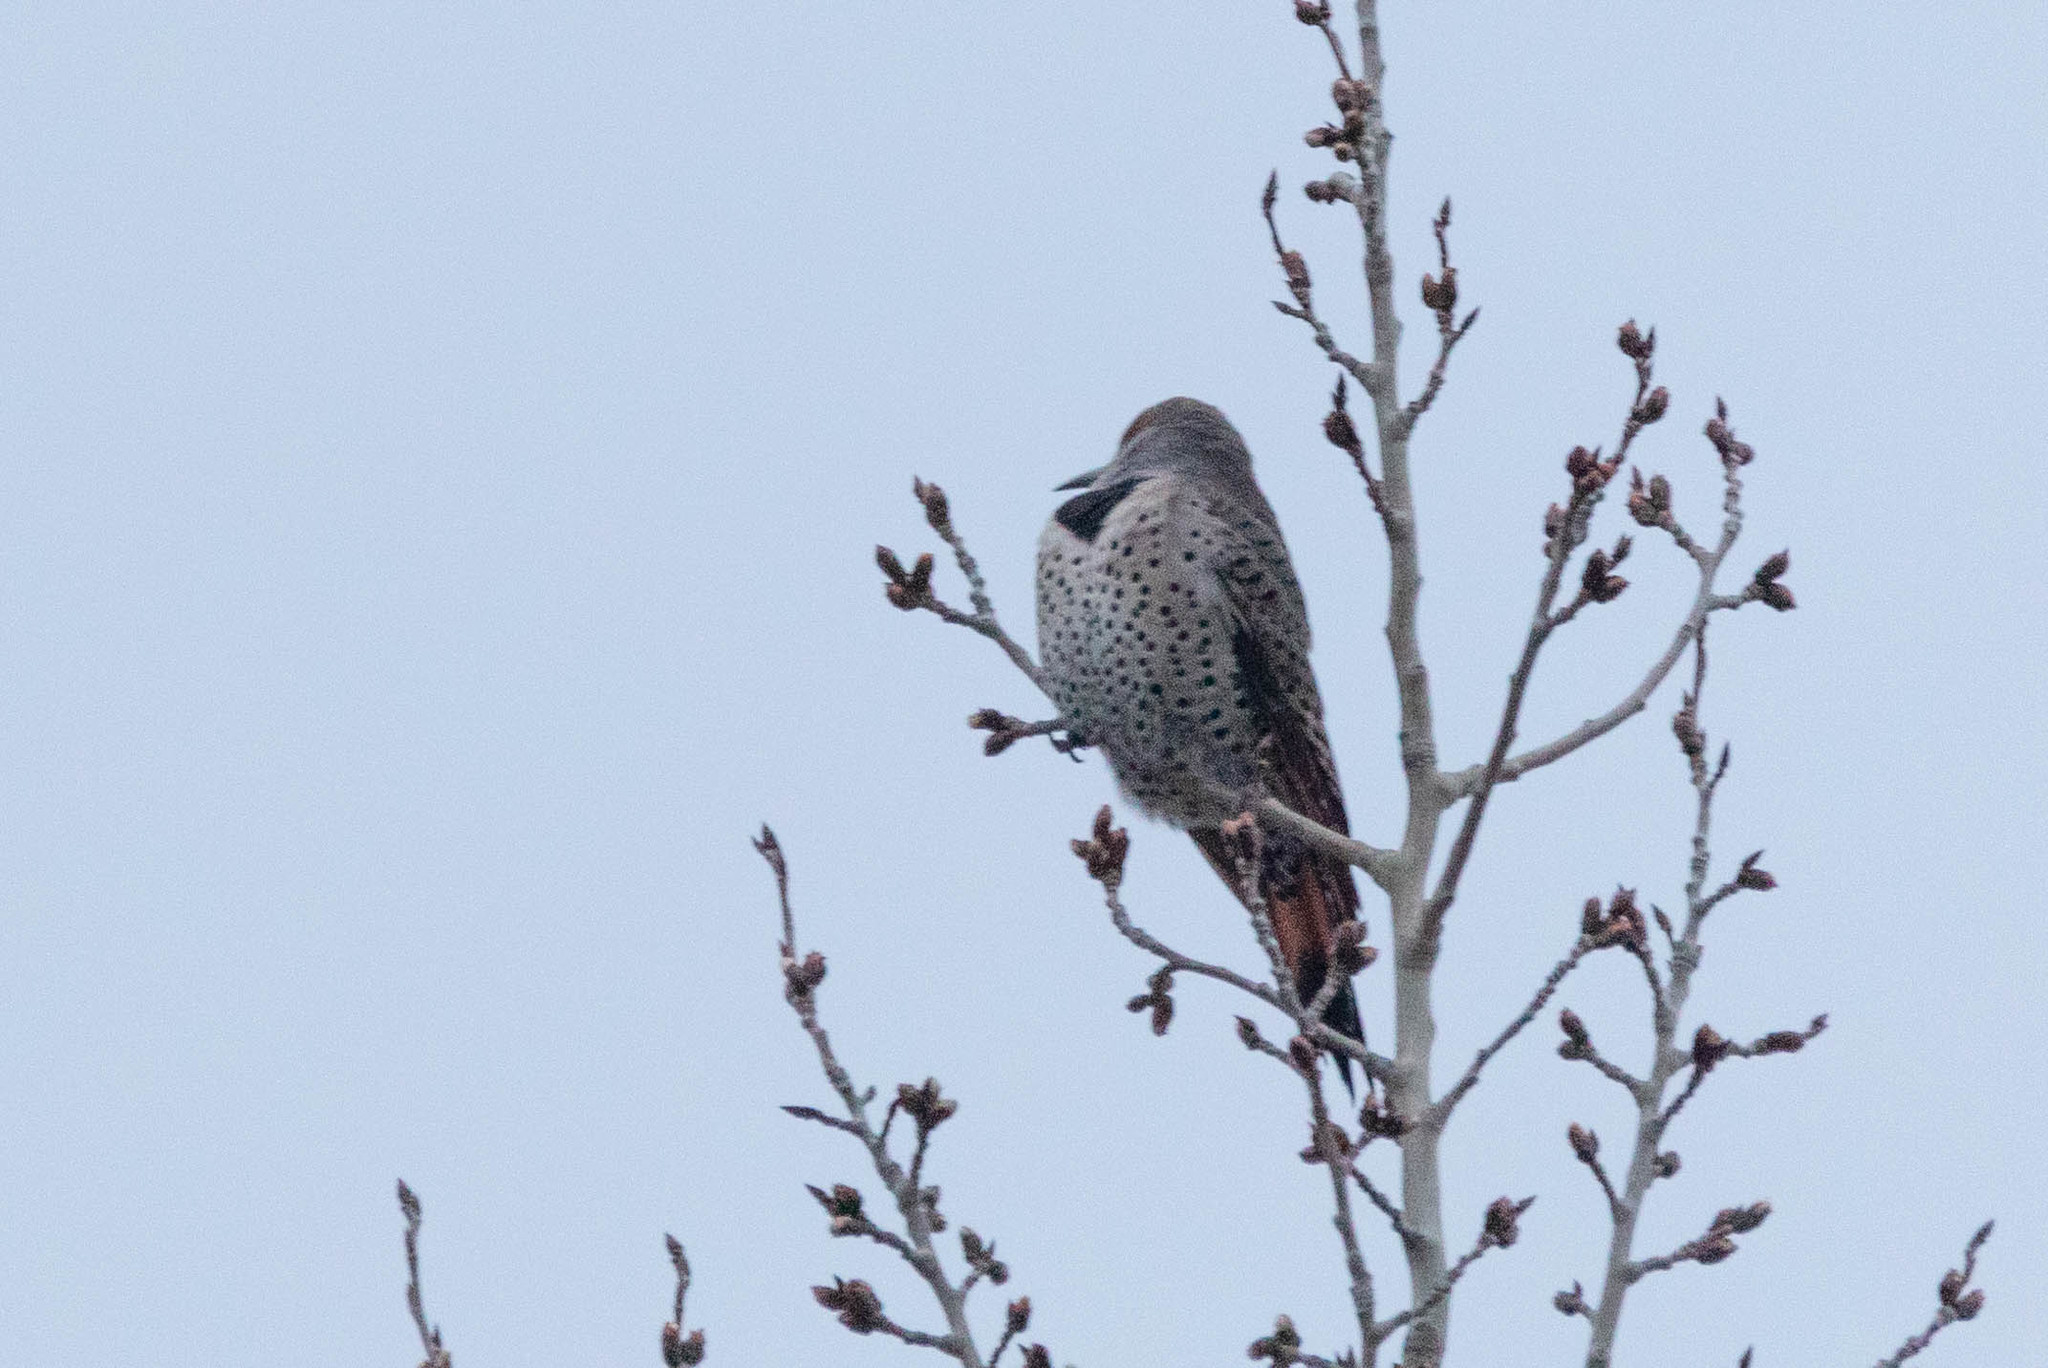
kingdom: Animalia
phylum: Chordata
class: Aves
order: Piciformes
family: Picidae
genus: Colaptes
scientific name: Colaptes auratus
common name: Northern flicker
